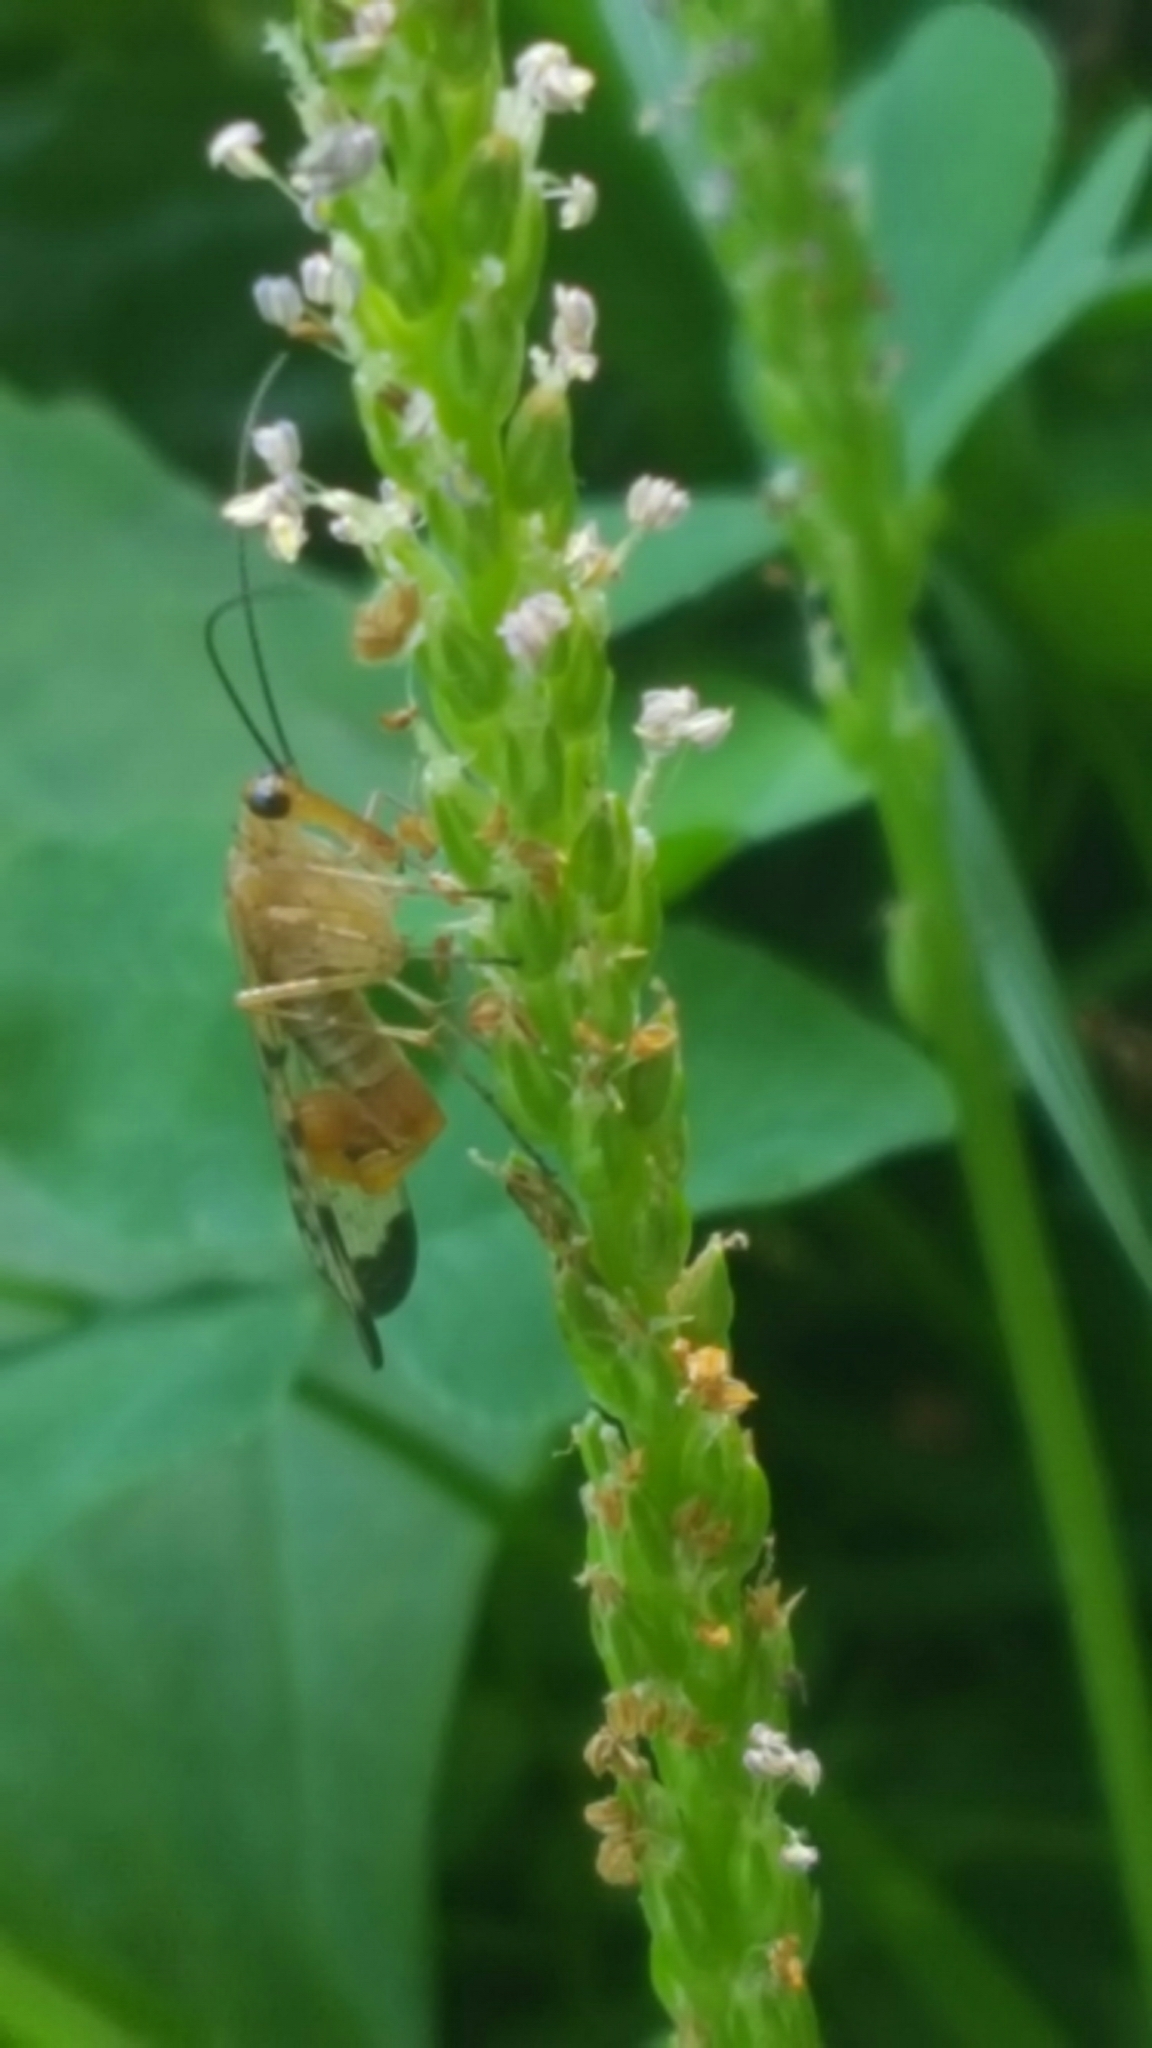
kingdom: Animalia
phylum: Arthropoda
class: Insecta
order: Mecoptera
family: Panorpidae
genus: Panorpa
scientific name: Panorpa
